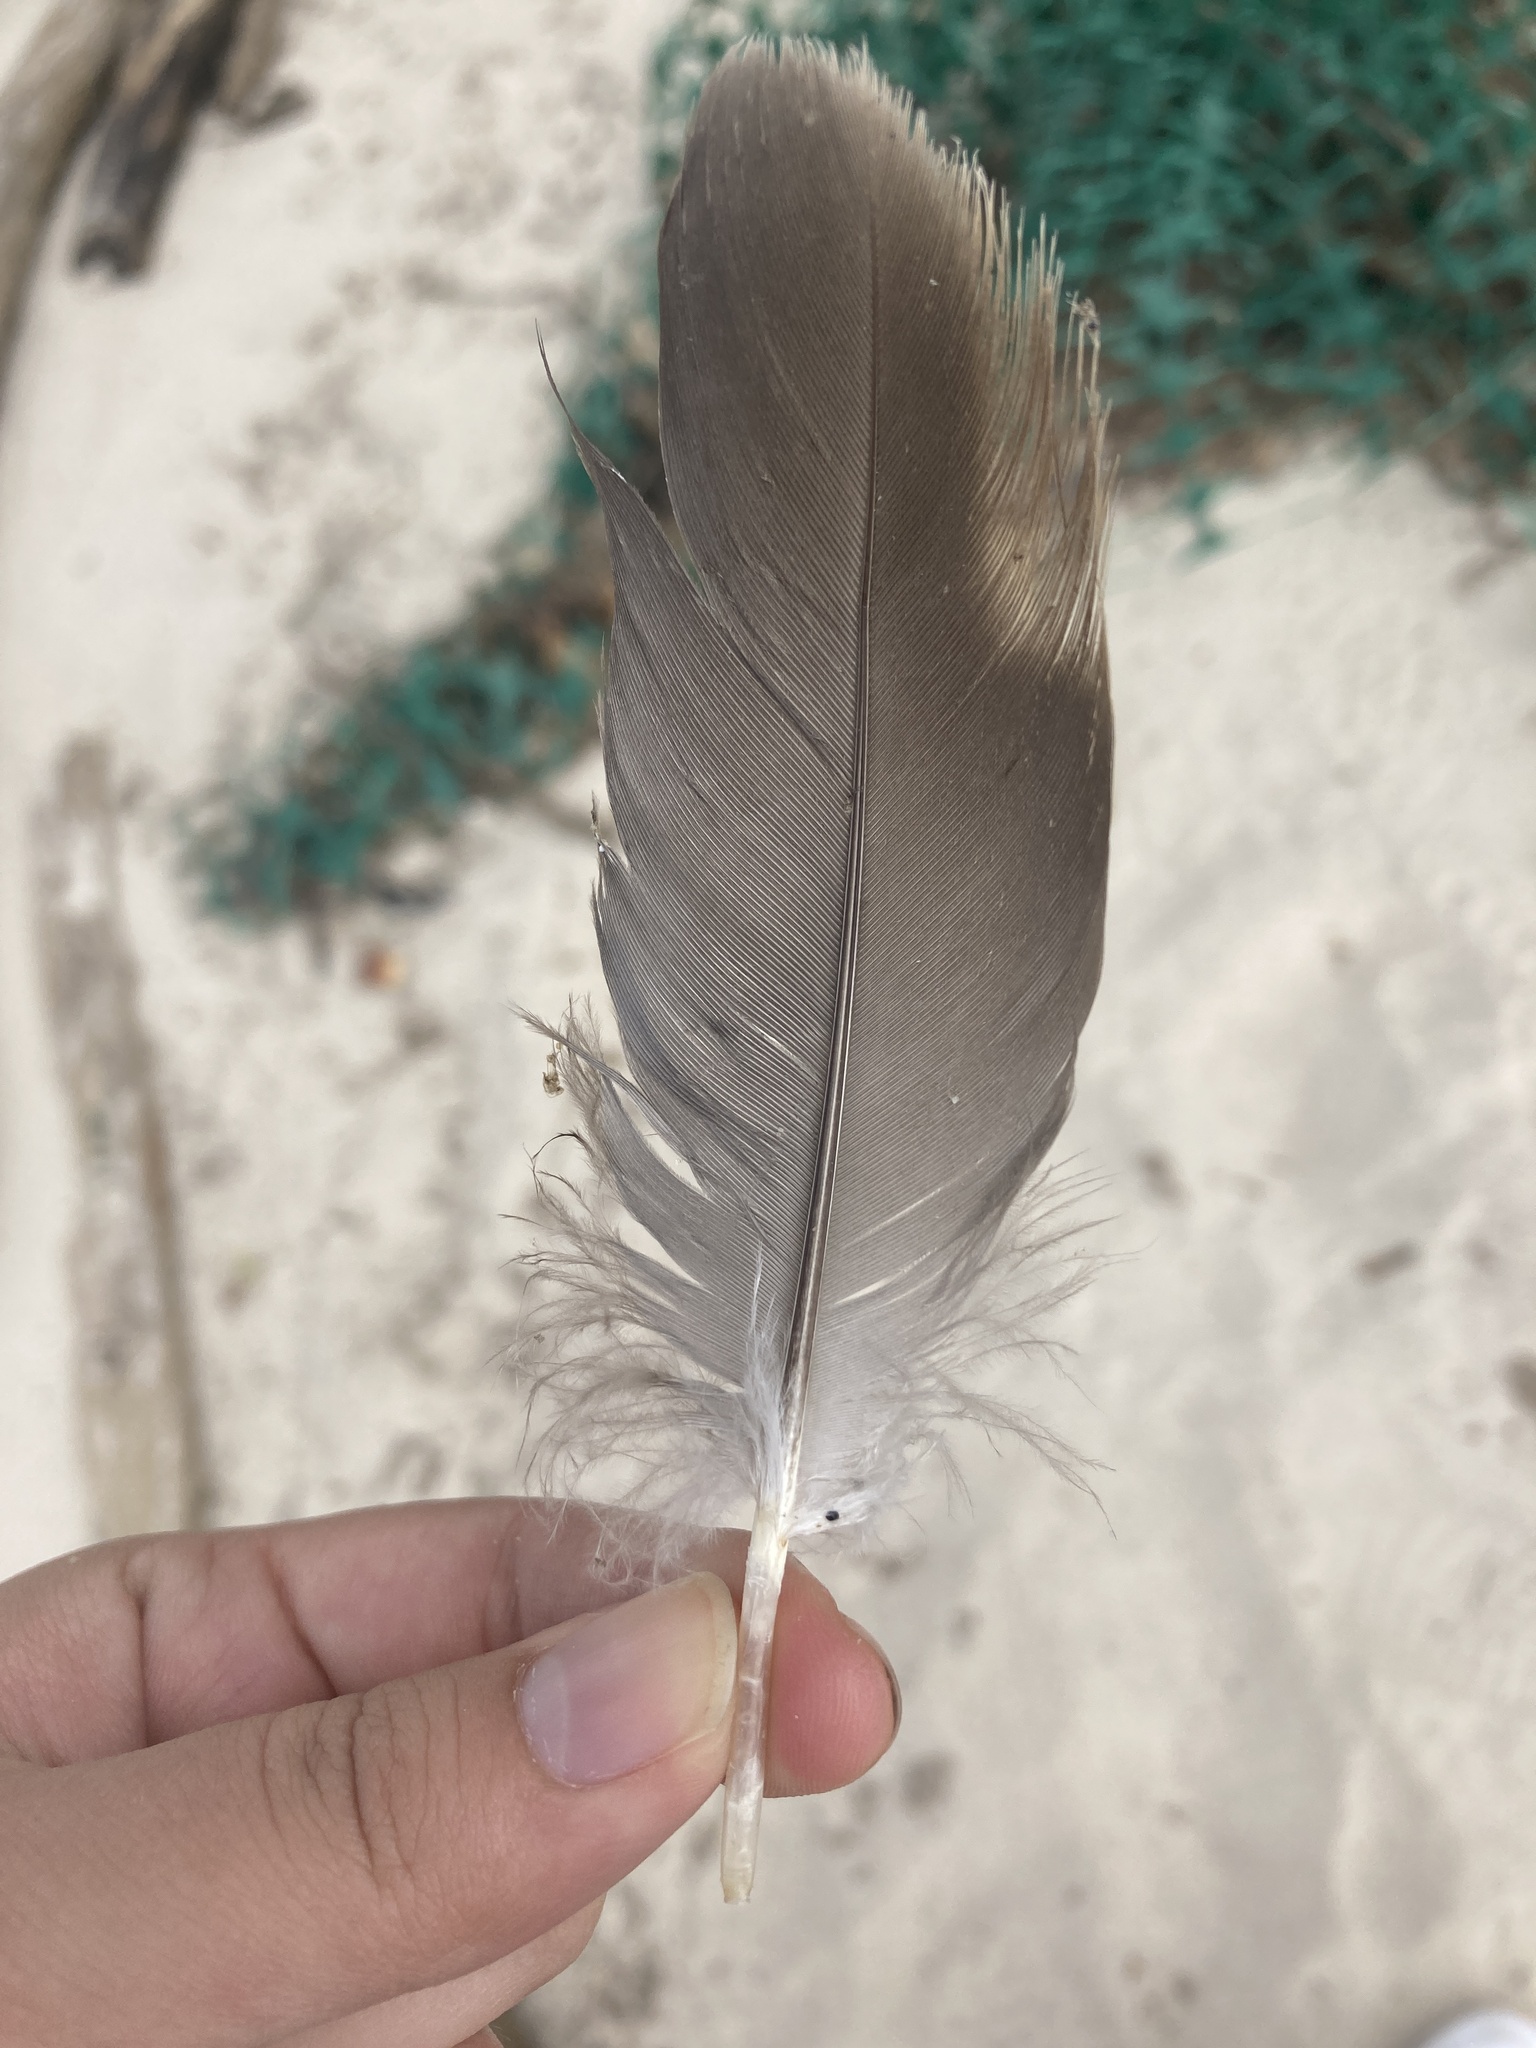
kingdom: Animalia
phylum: Chordata
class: Aves
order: Anseriformes
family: Anatidae
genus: Branta
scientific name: Branta canadensis
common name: Canada goose
